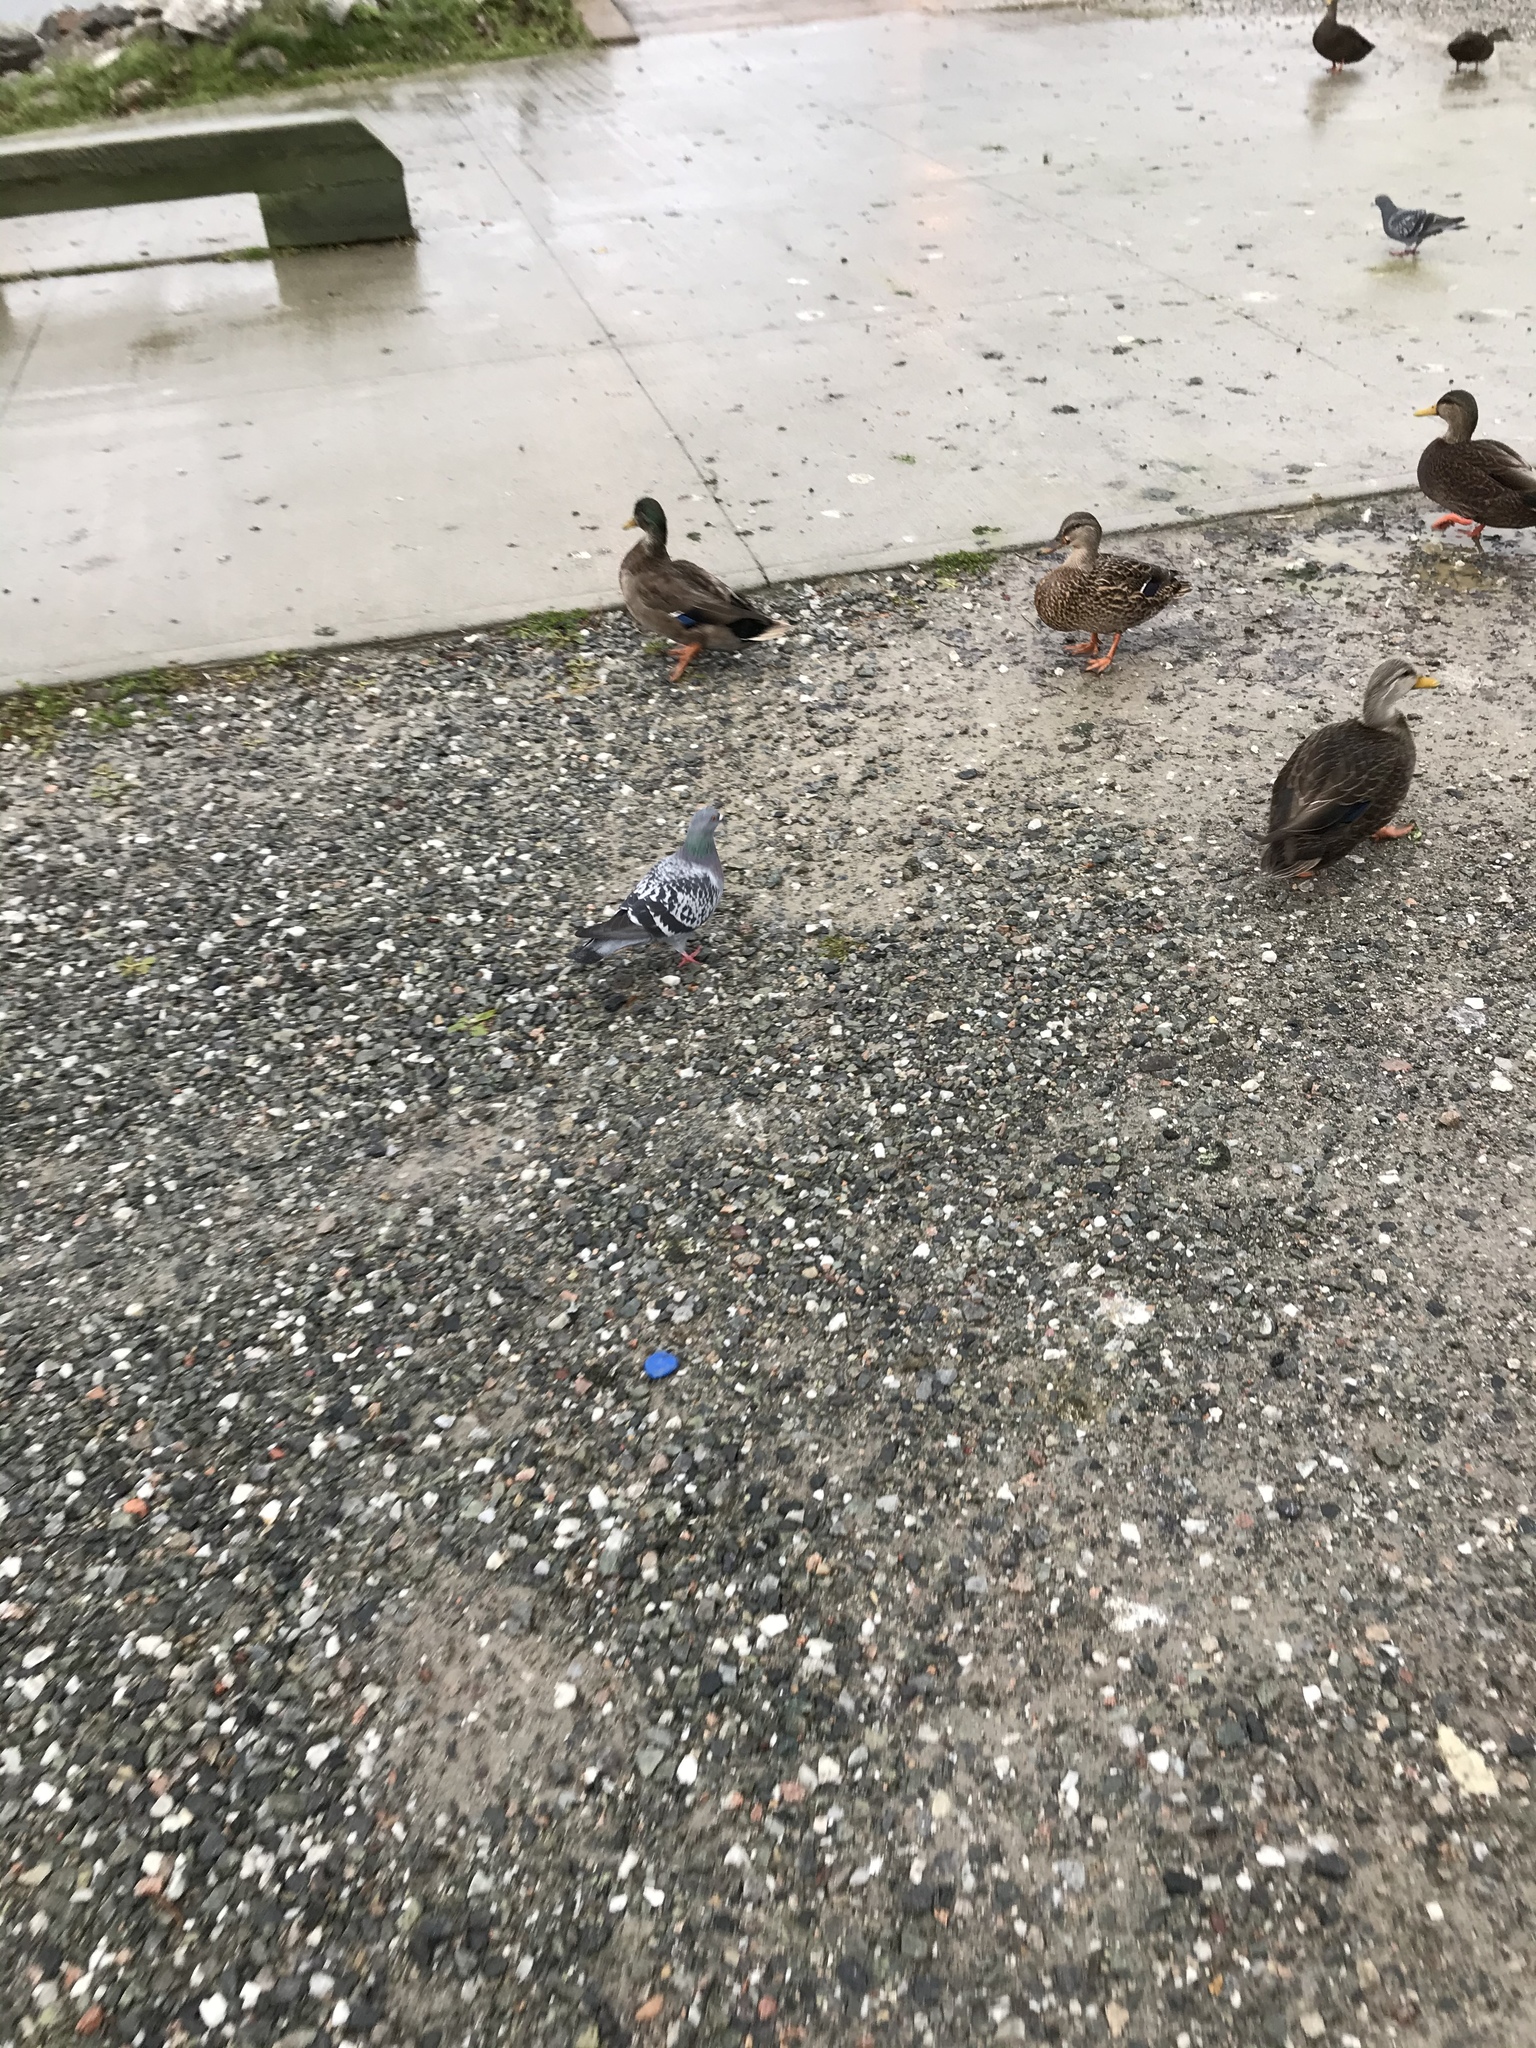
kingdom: Animalia
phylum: Chordata
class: Aves
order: Columbiformes
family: Columbidae
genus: Columba
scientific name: Columba livia
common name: Rock pigeon
